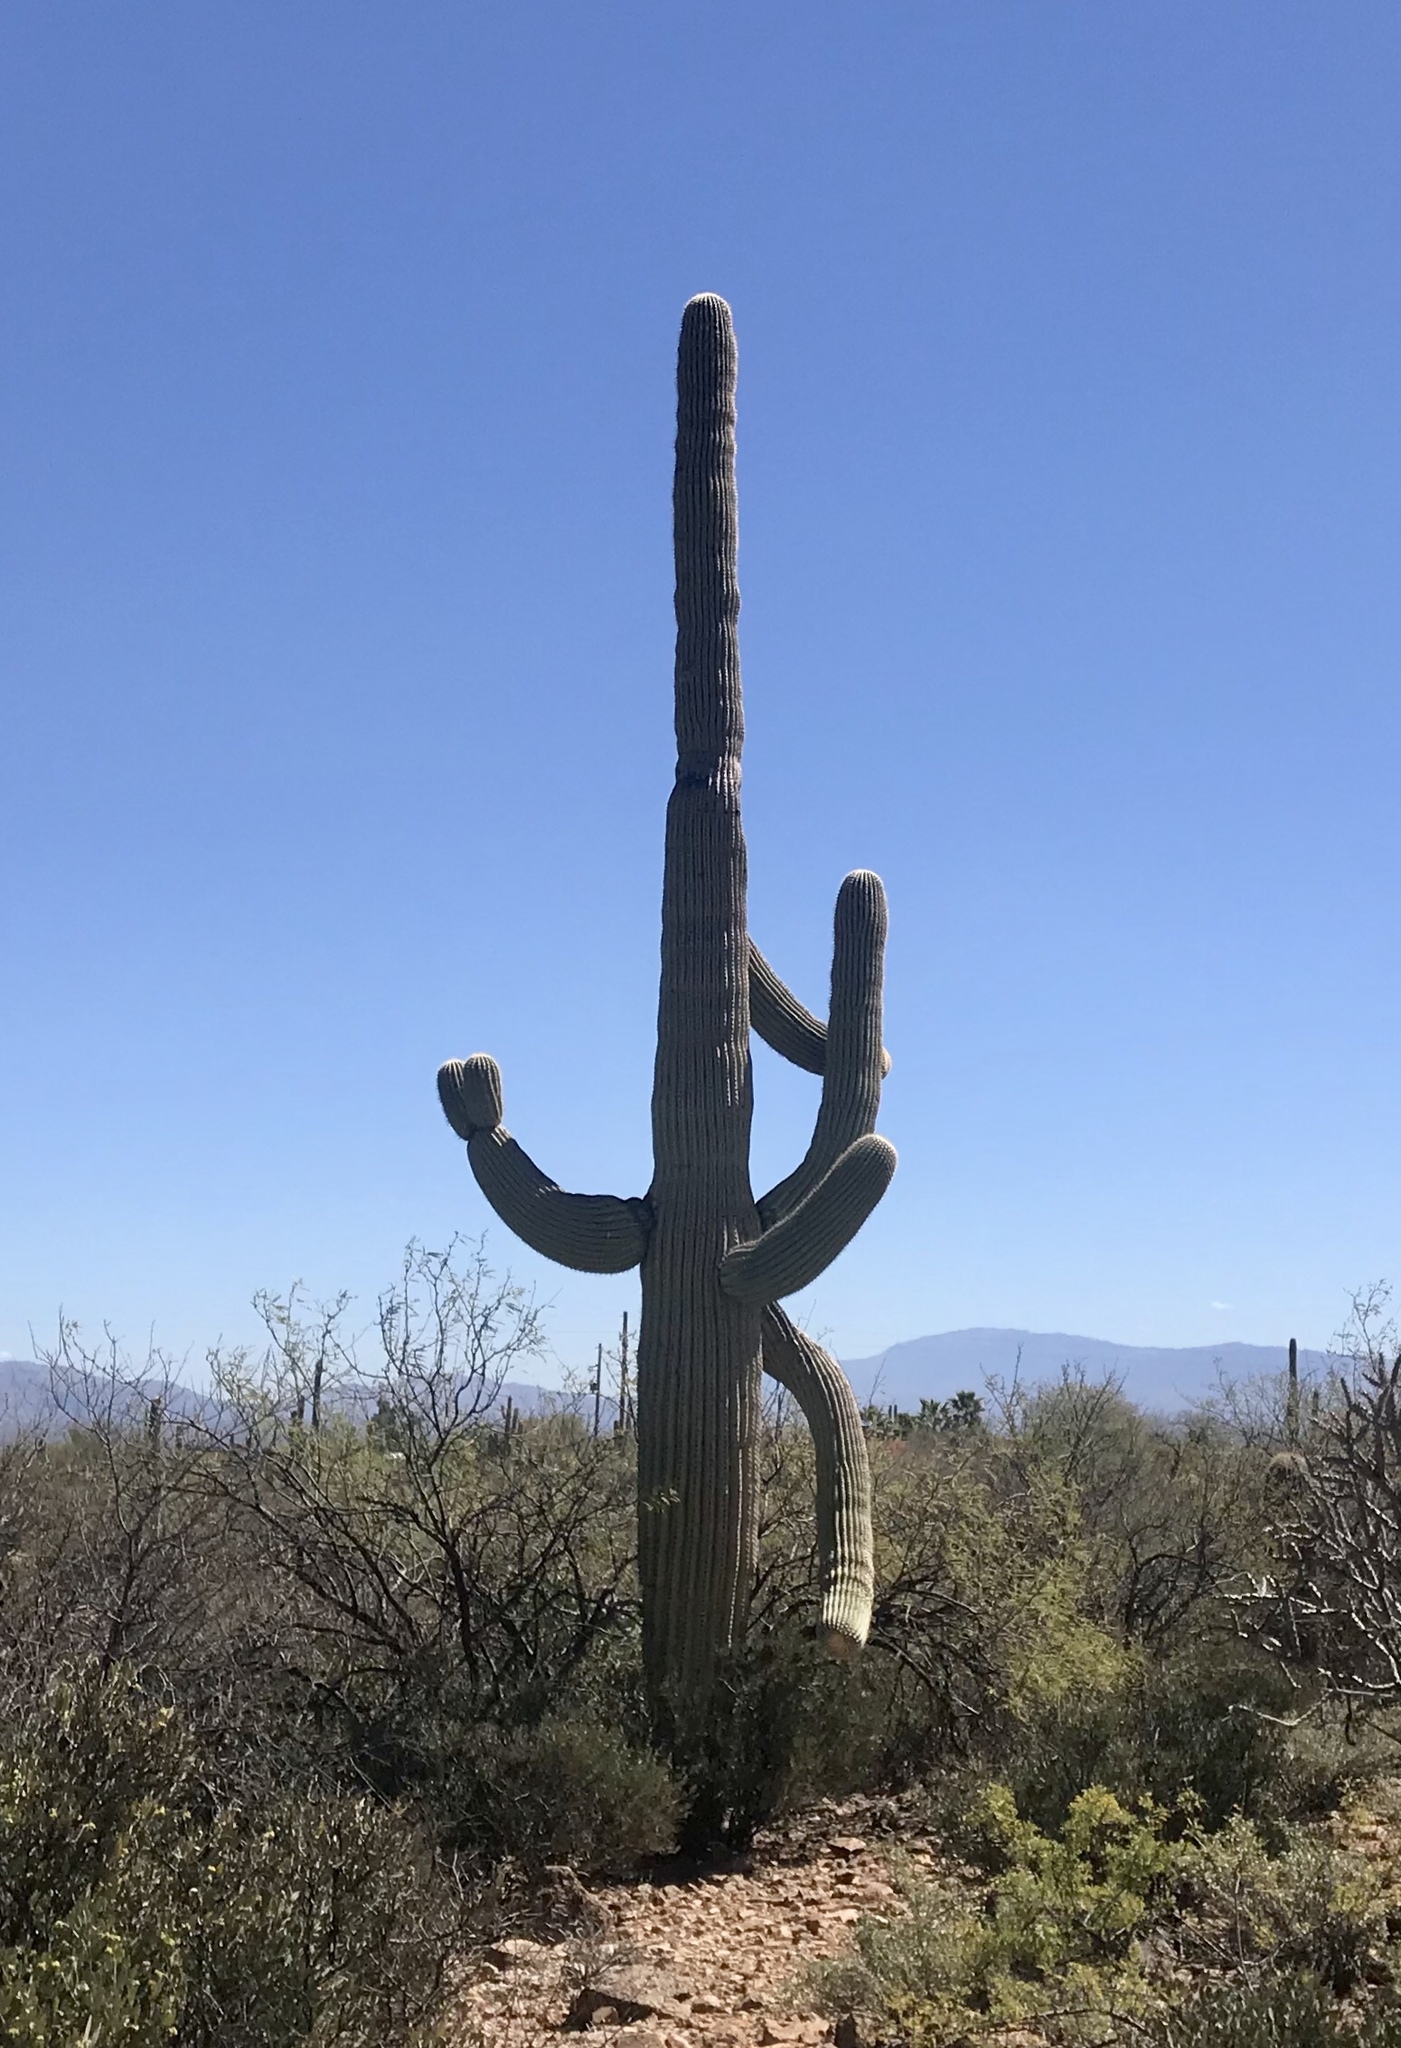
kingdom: Plantae
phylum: Tracheophyta
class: Magnoliopsida
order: Caryophyllales
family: Cactaceae
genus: Carnegiea
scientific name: Carnegiea gigantea
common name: Saguaro
